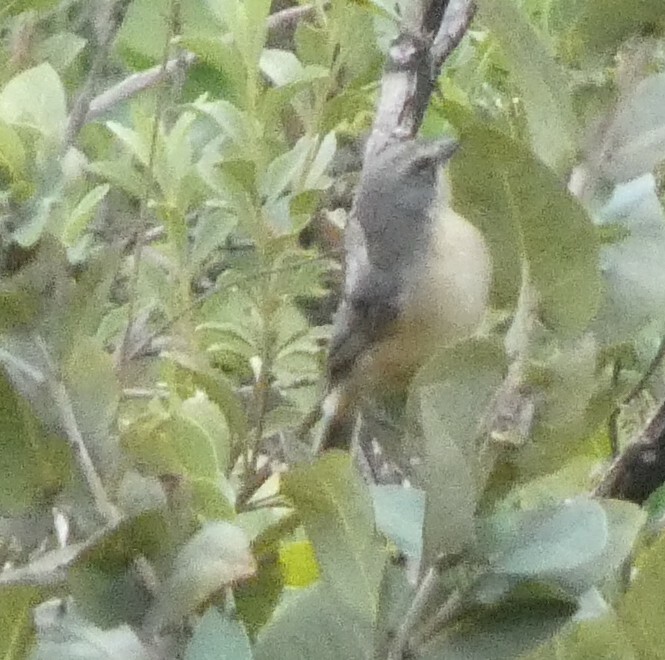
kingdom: Animalia
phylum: Chordata
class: Aves
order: Passeriformes
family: Thraupidae
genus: Donacospiza
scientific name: Donacospiza albifrons
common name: Long-tailed reed finch
